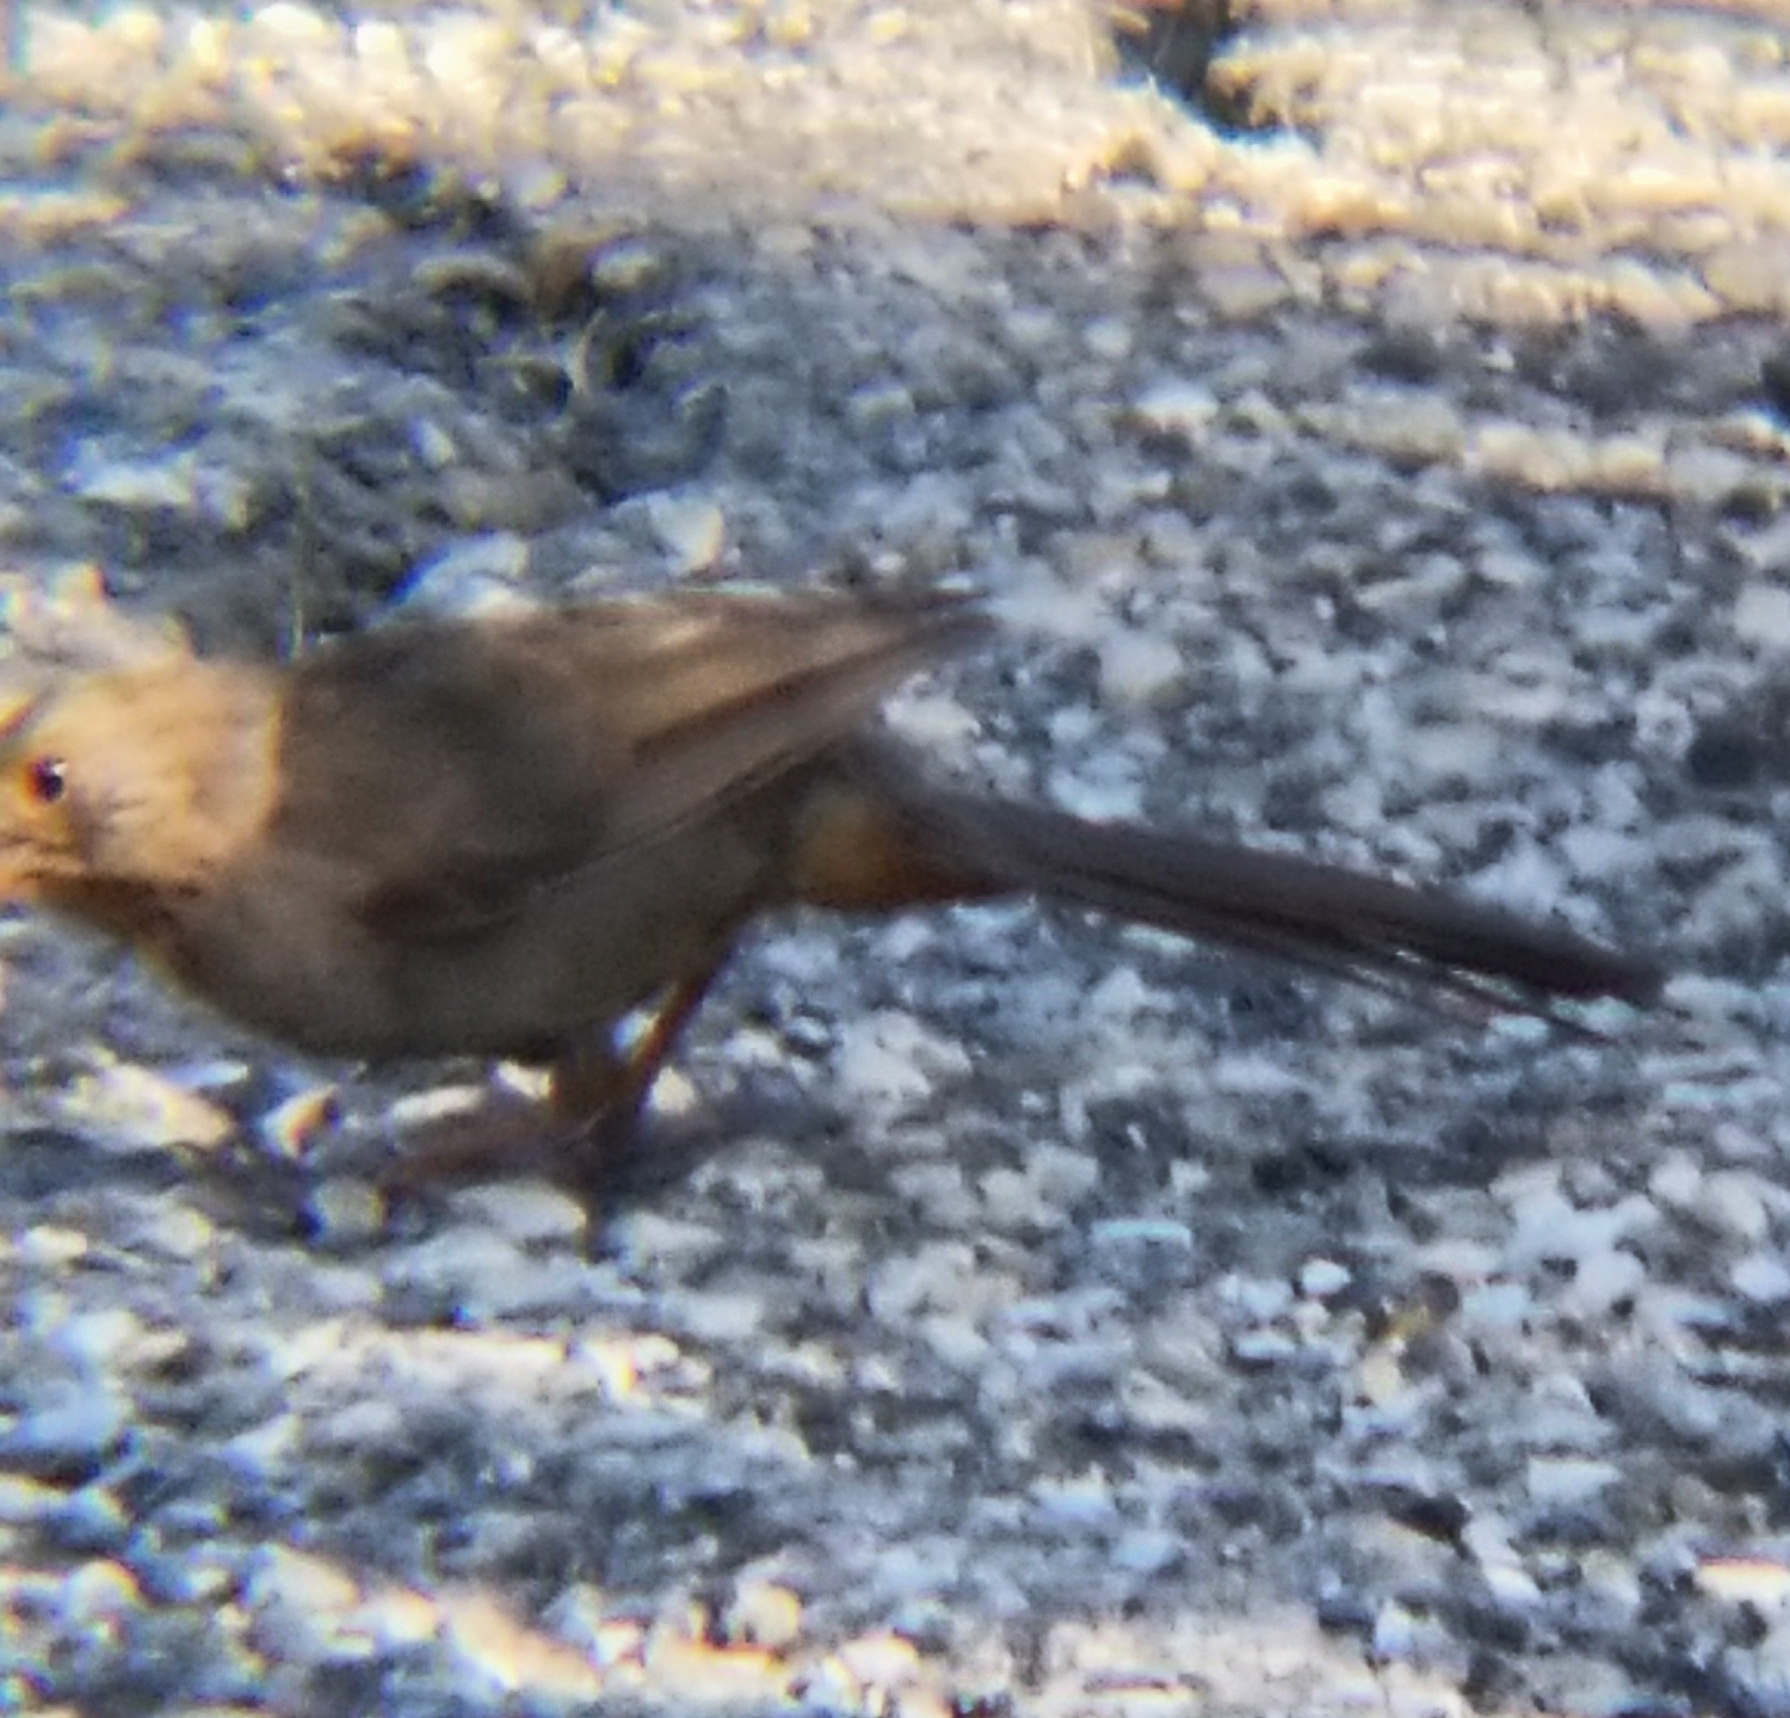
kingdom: Animalia
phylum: Chordata
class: Aves
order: Passeriformes
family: Passerellidae
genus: Melozone
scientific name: Melozone crissalis
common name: California towhee
